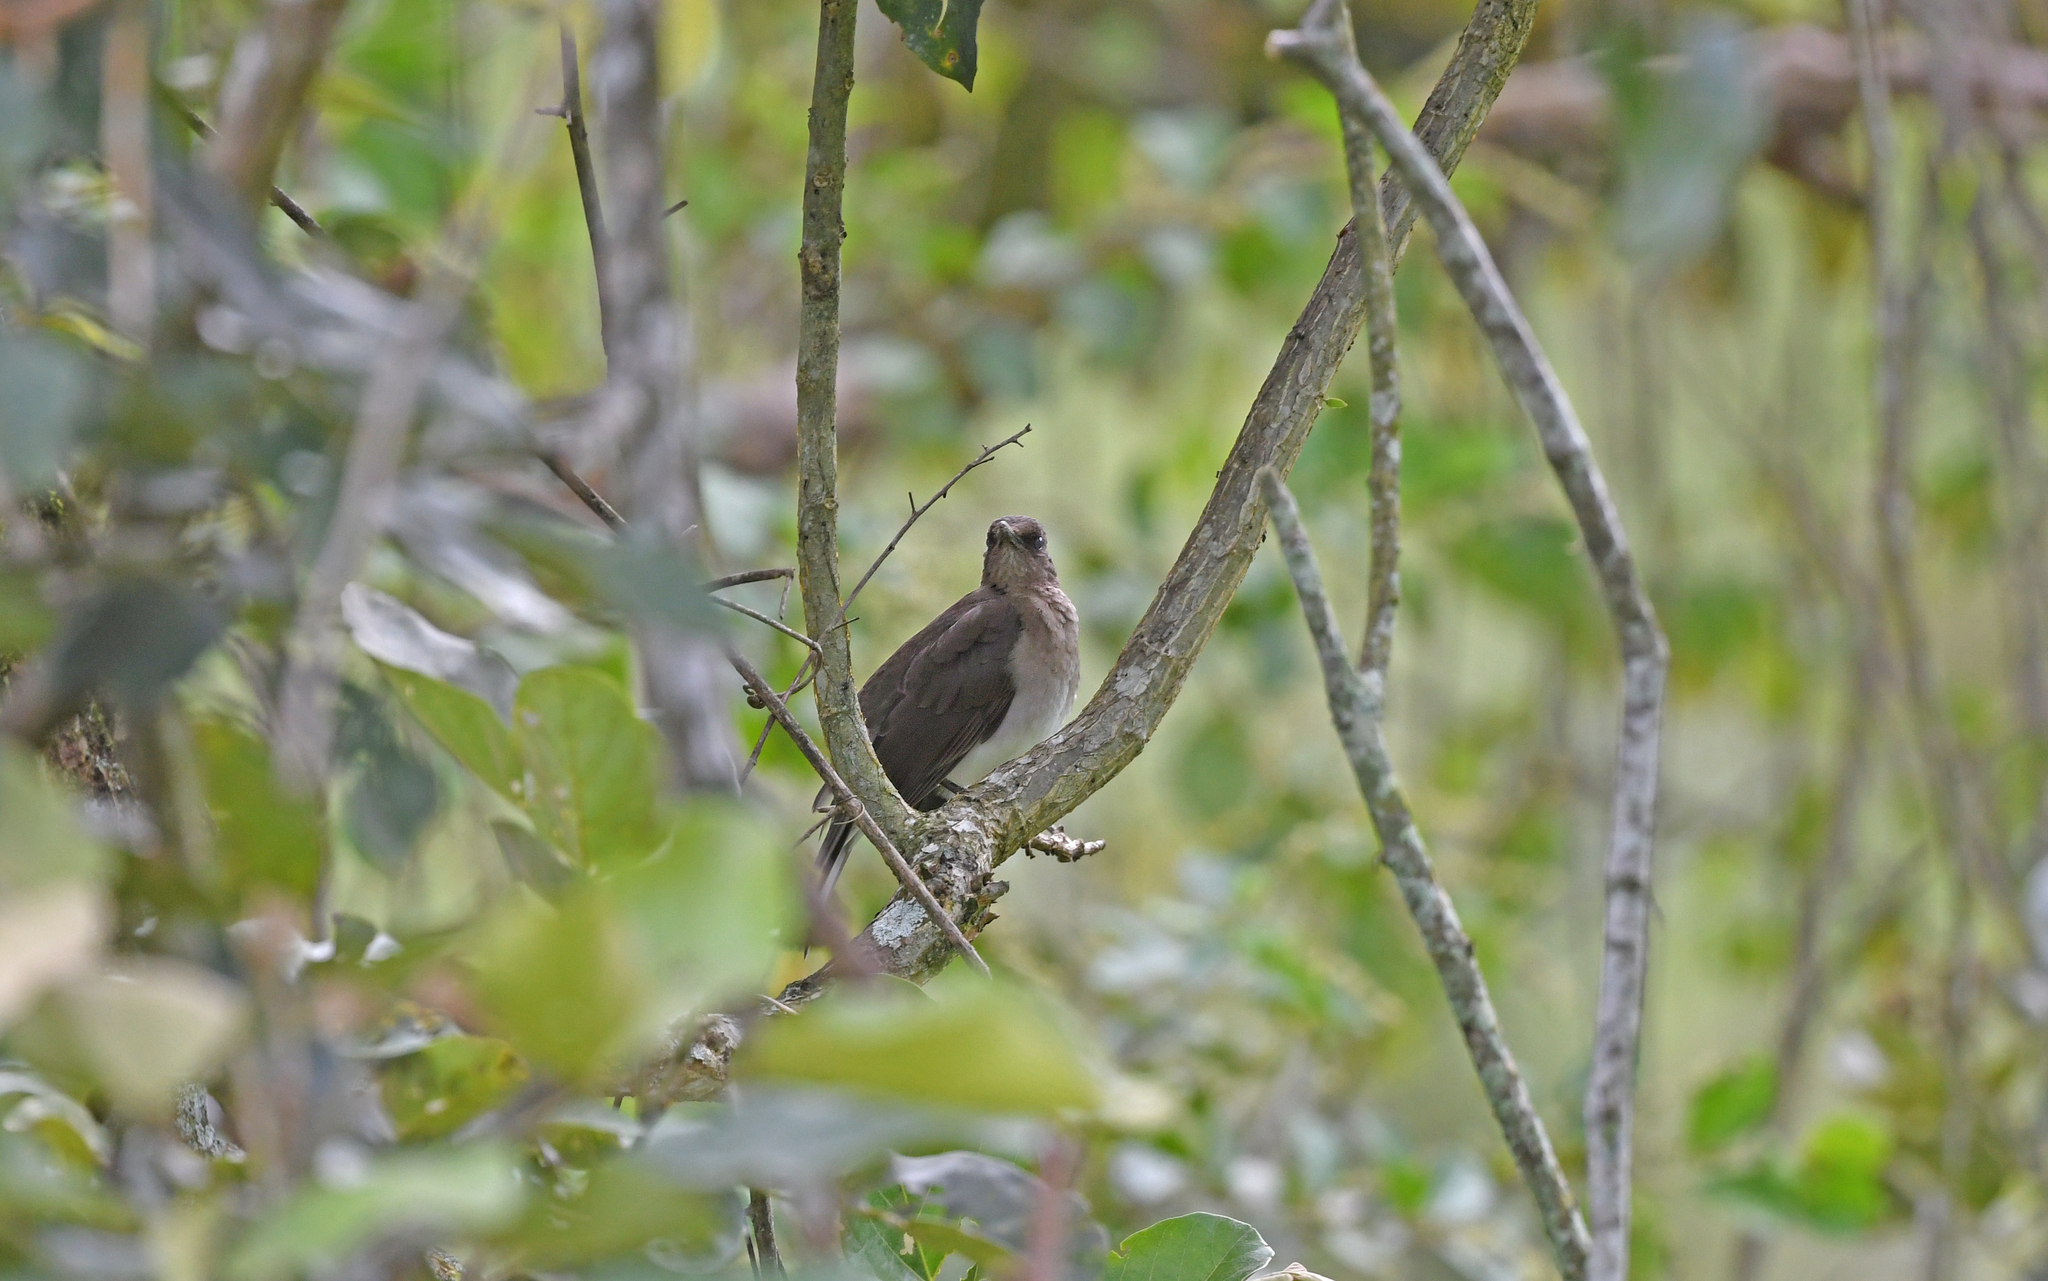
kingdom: Animalia
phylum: Chordata
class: Aves
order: Passeriformes
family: Turdidae
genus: Turdus
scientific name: Turdus ignobilis
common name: Black-billed thrush
